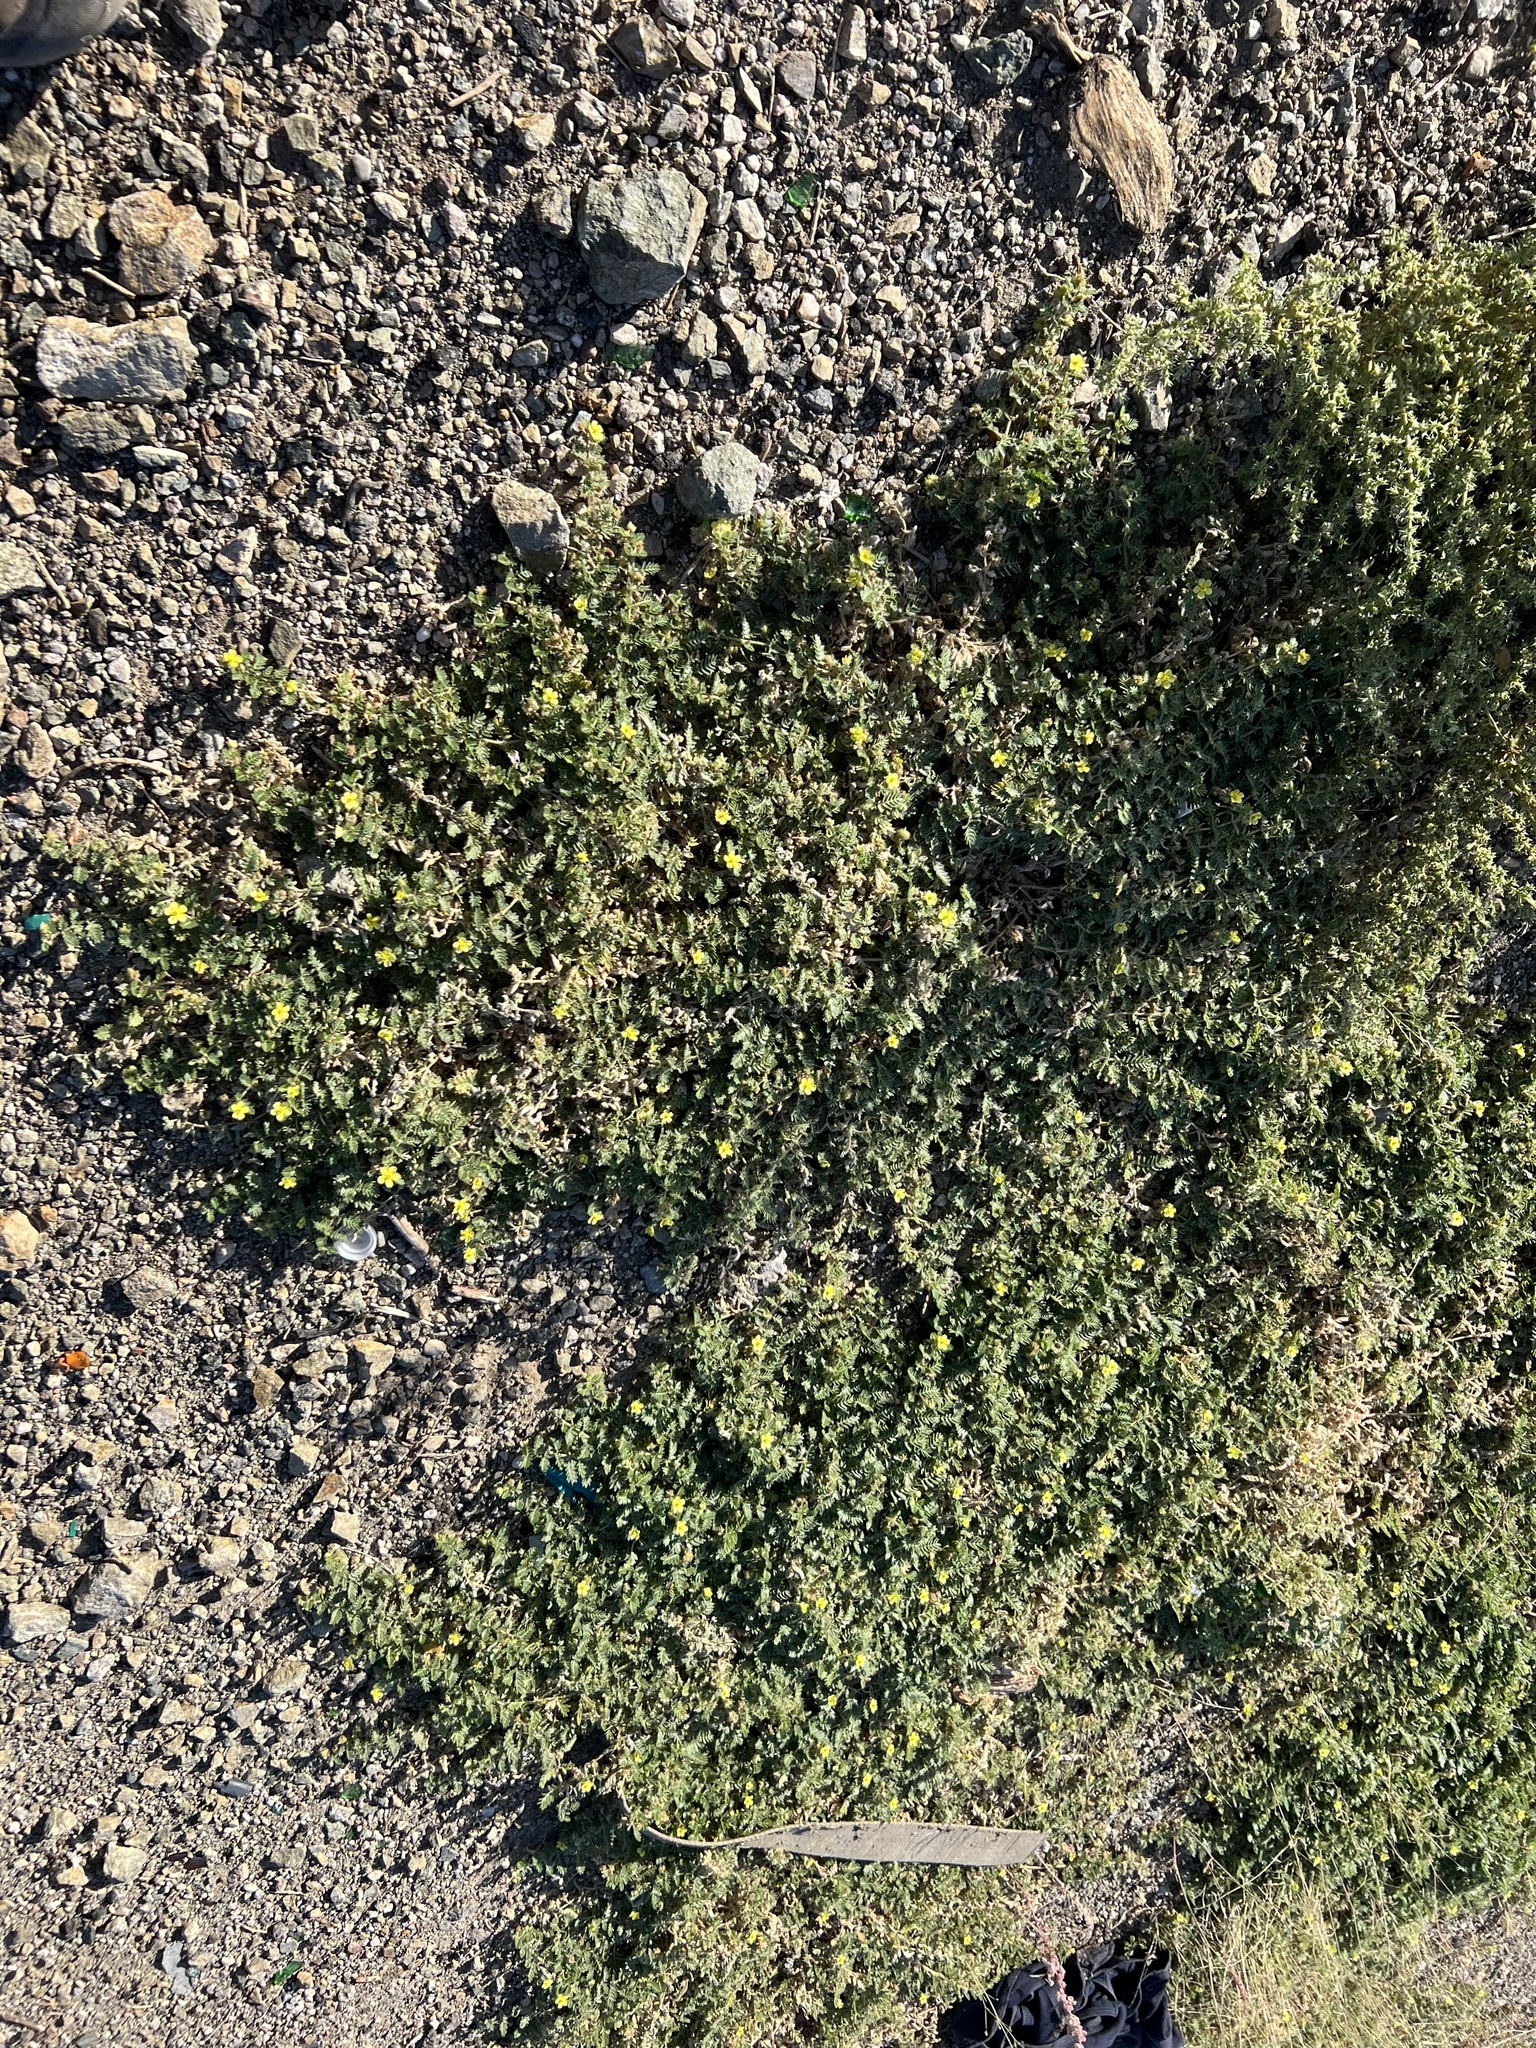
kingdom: Plantae
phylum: Tracheophyta
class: Magnoliopsida
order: Zygophyllales
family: Zygophyllaceae
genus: Tribulus
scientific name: Tribulus terrestris
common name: Puncturevine
